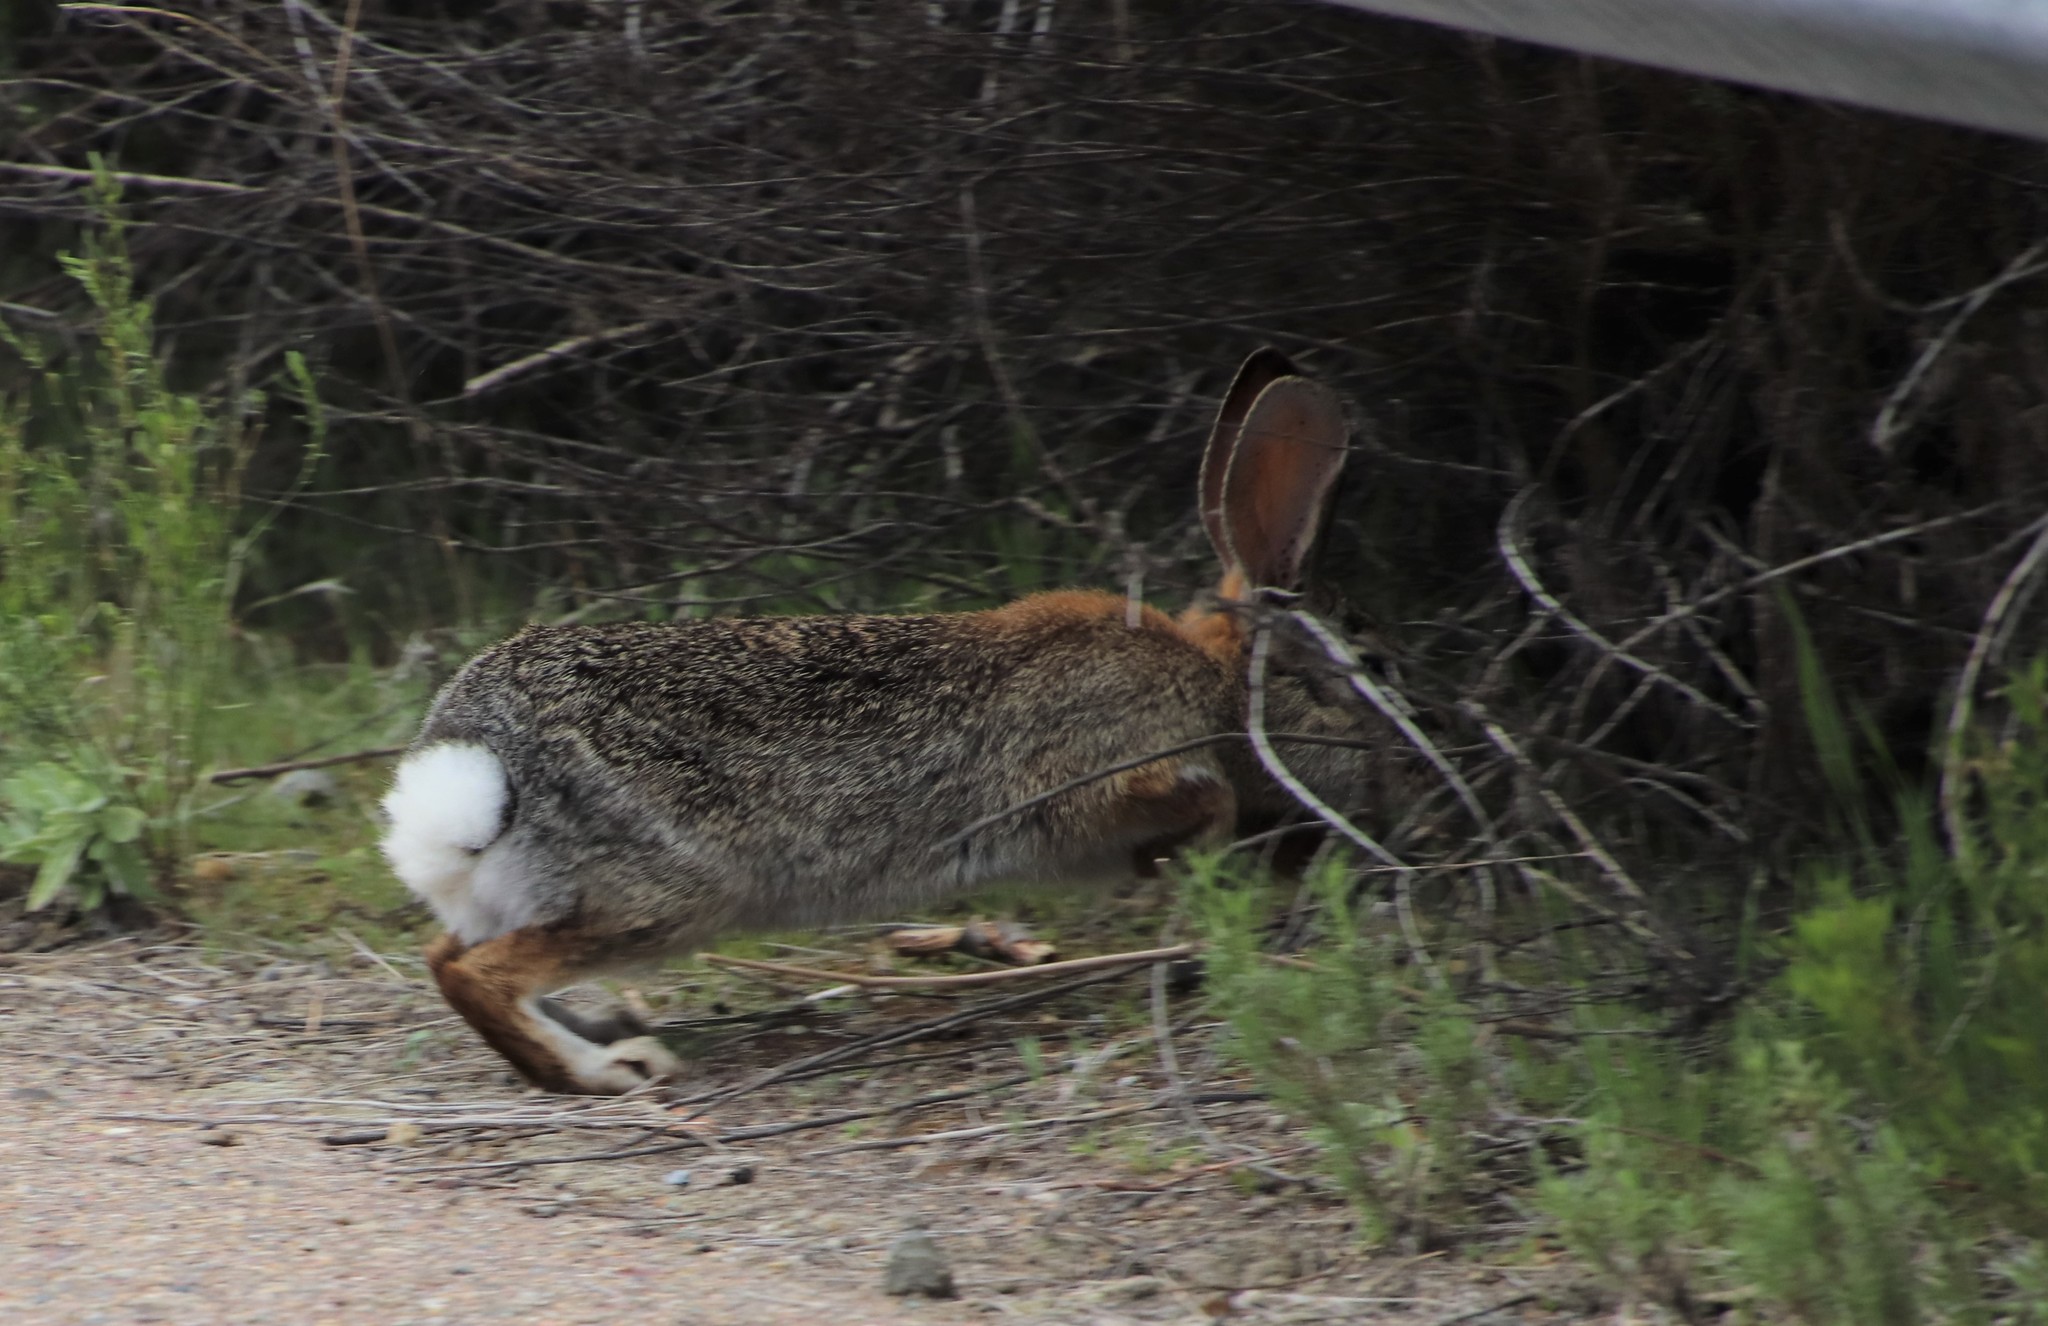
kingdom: Animalia
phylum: Chordata
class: Mammalia
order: Lagomorpha
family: Leporidae
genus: Sylvilagus
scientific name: Sylvilagus audubonii
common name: Desert cottontail
